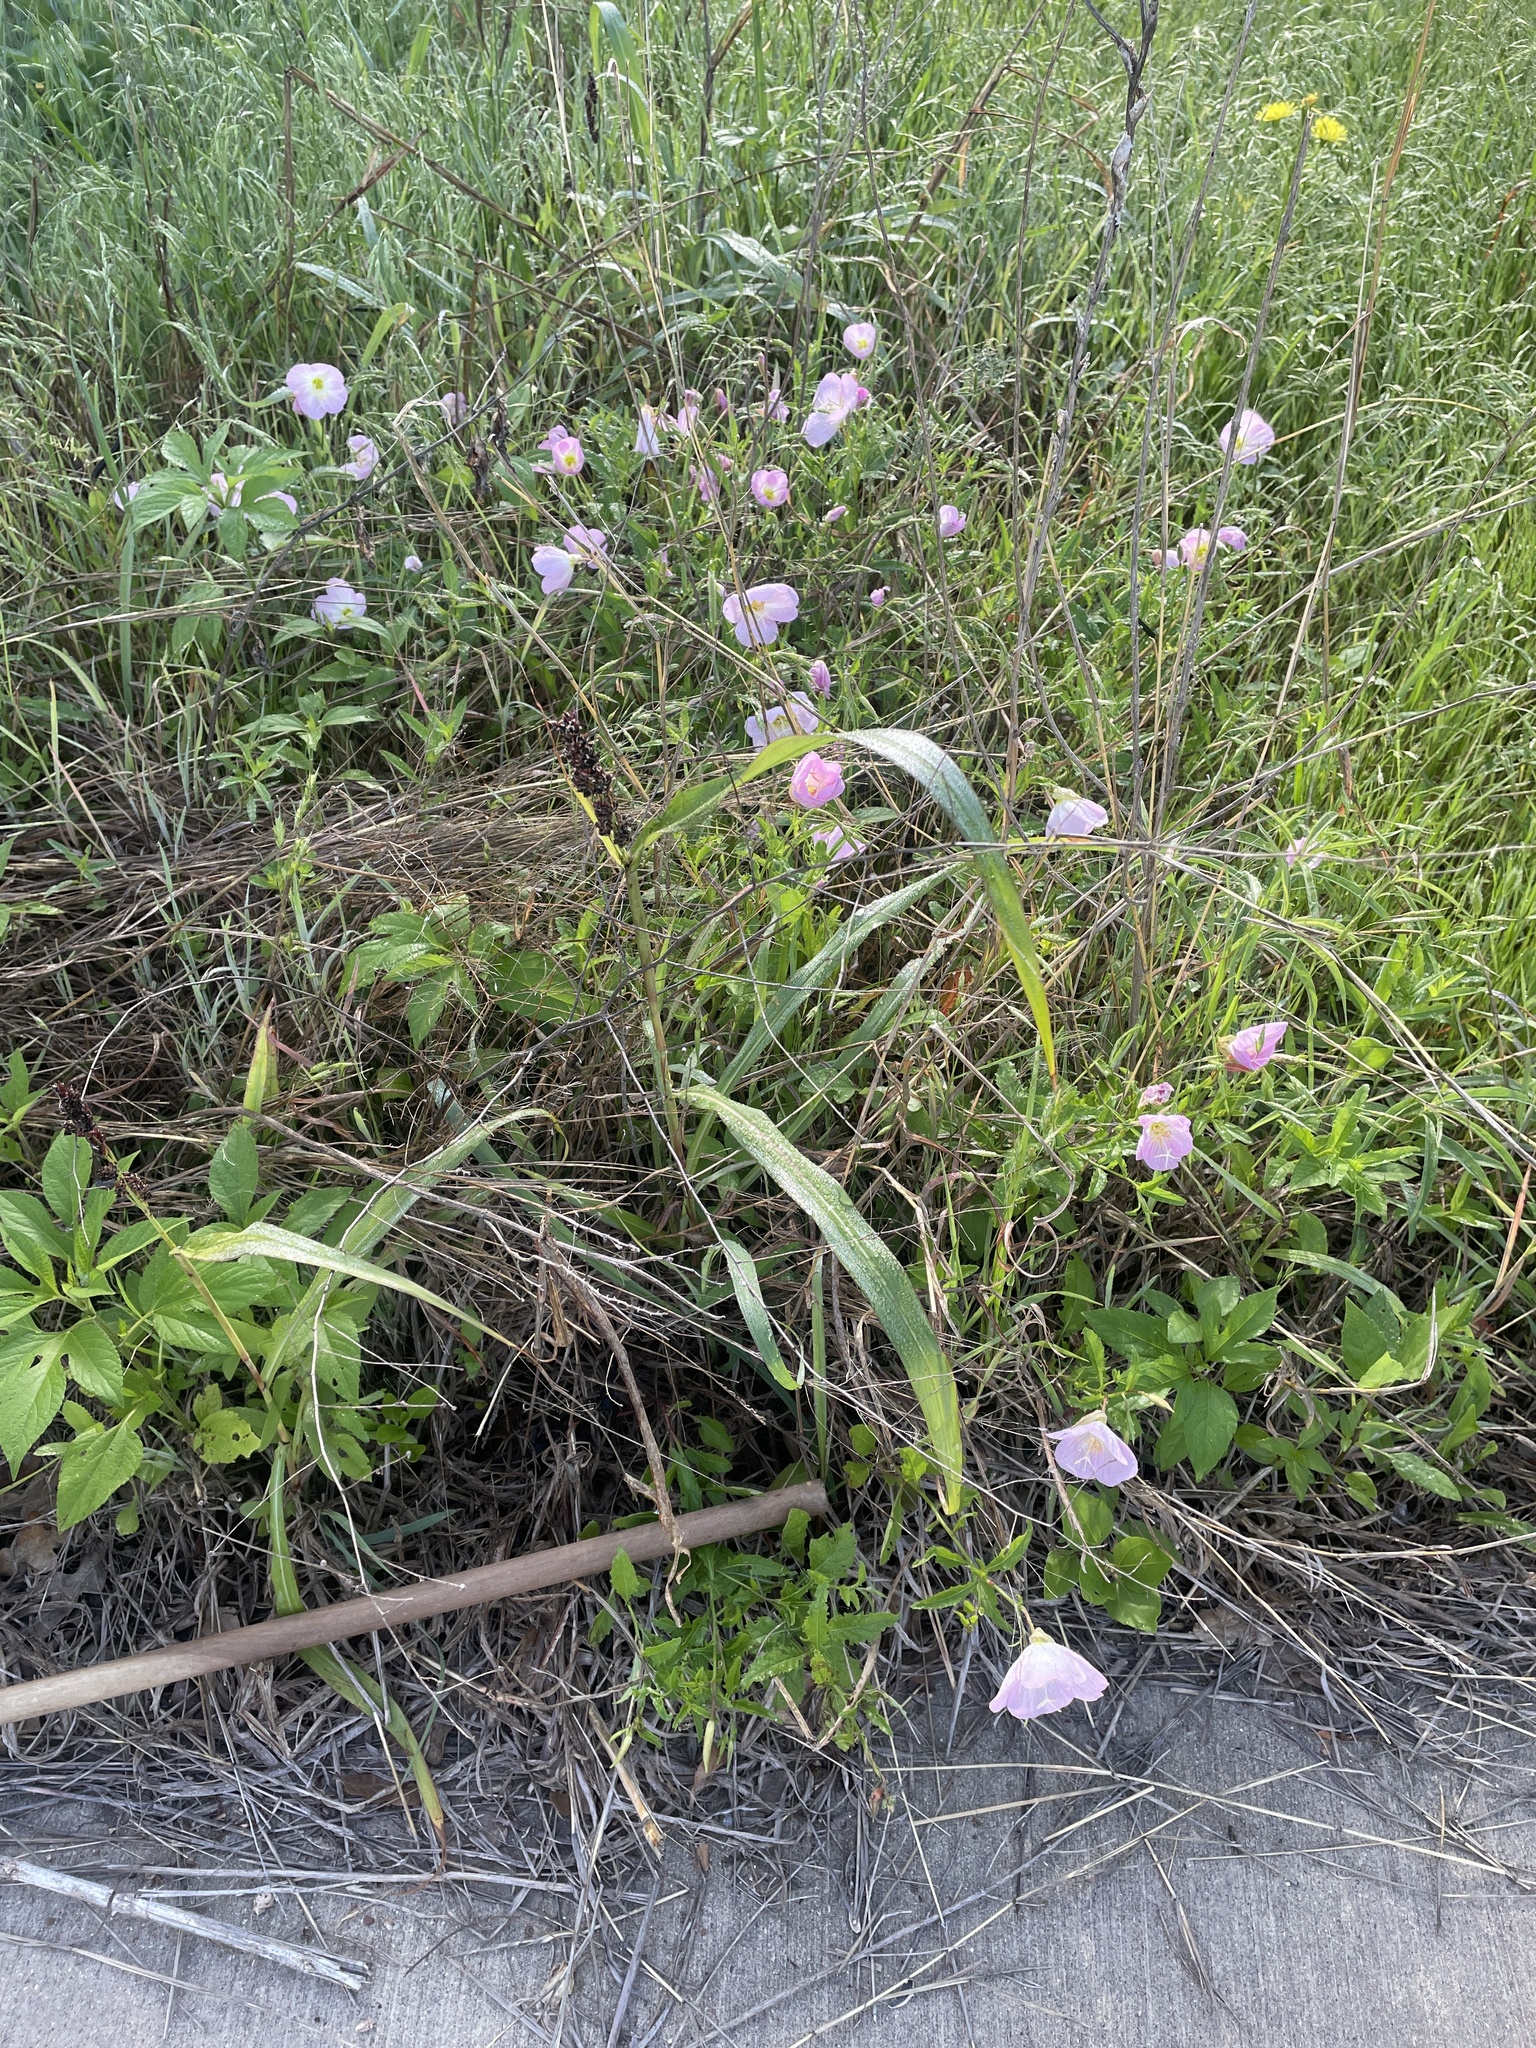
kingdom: Plantae
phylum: Tracheophyta
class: Liliopsida
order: Poales
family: Poaceae
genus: Sorghum
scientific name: Sorghum halepense
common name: Johnson-grass
